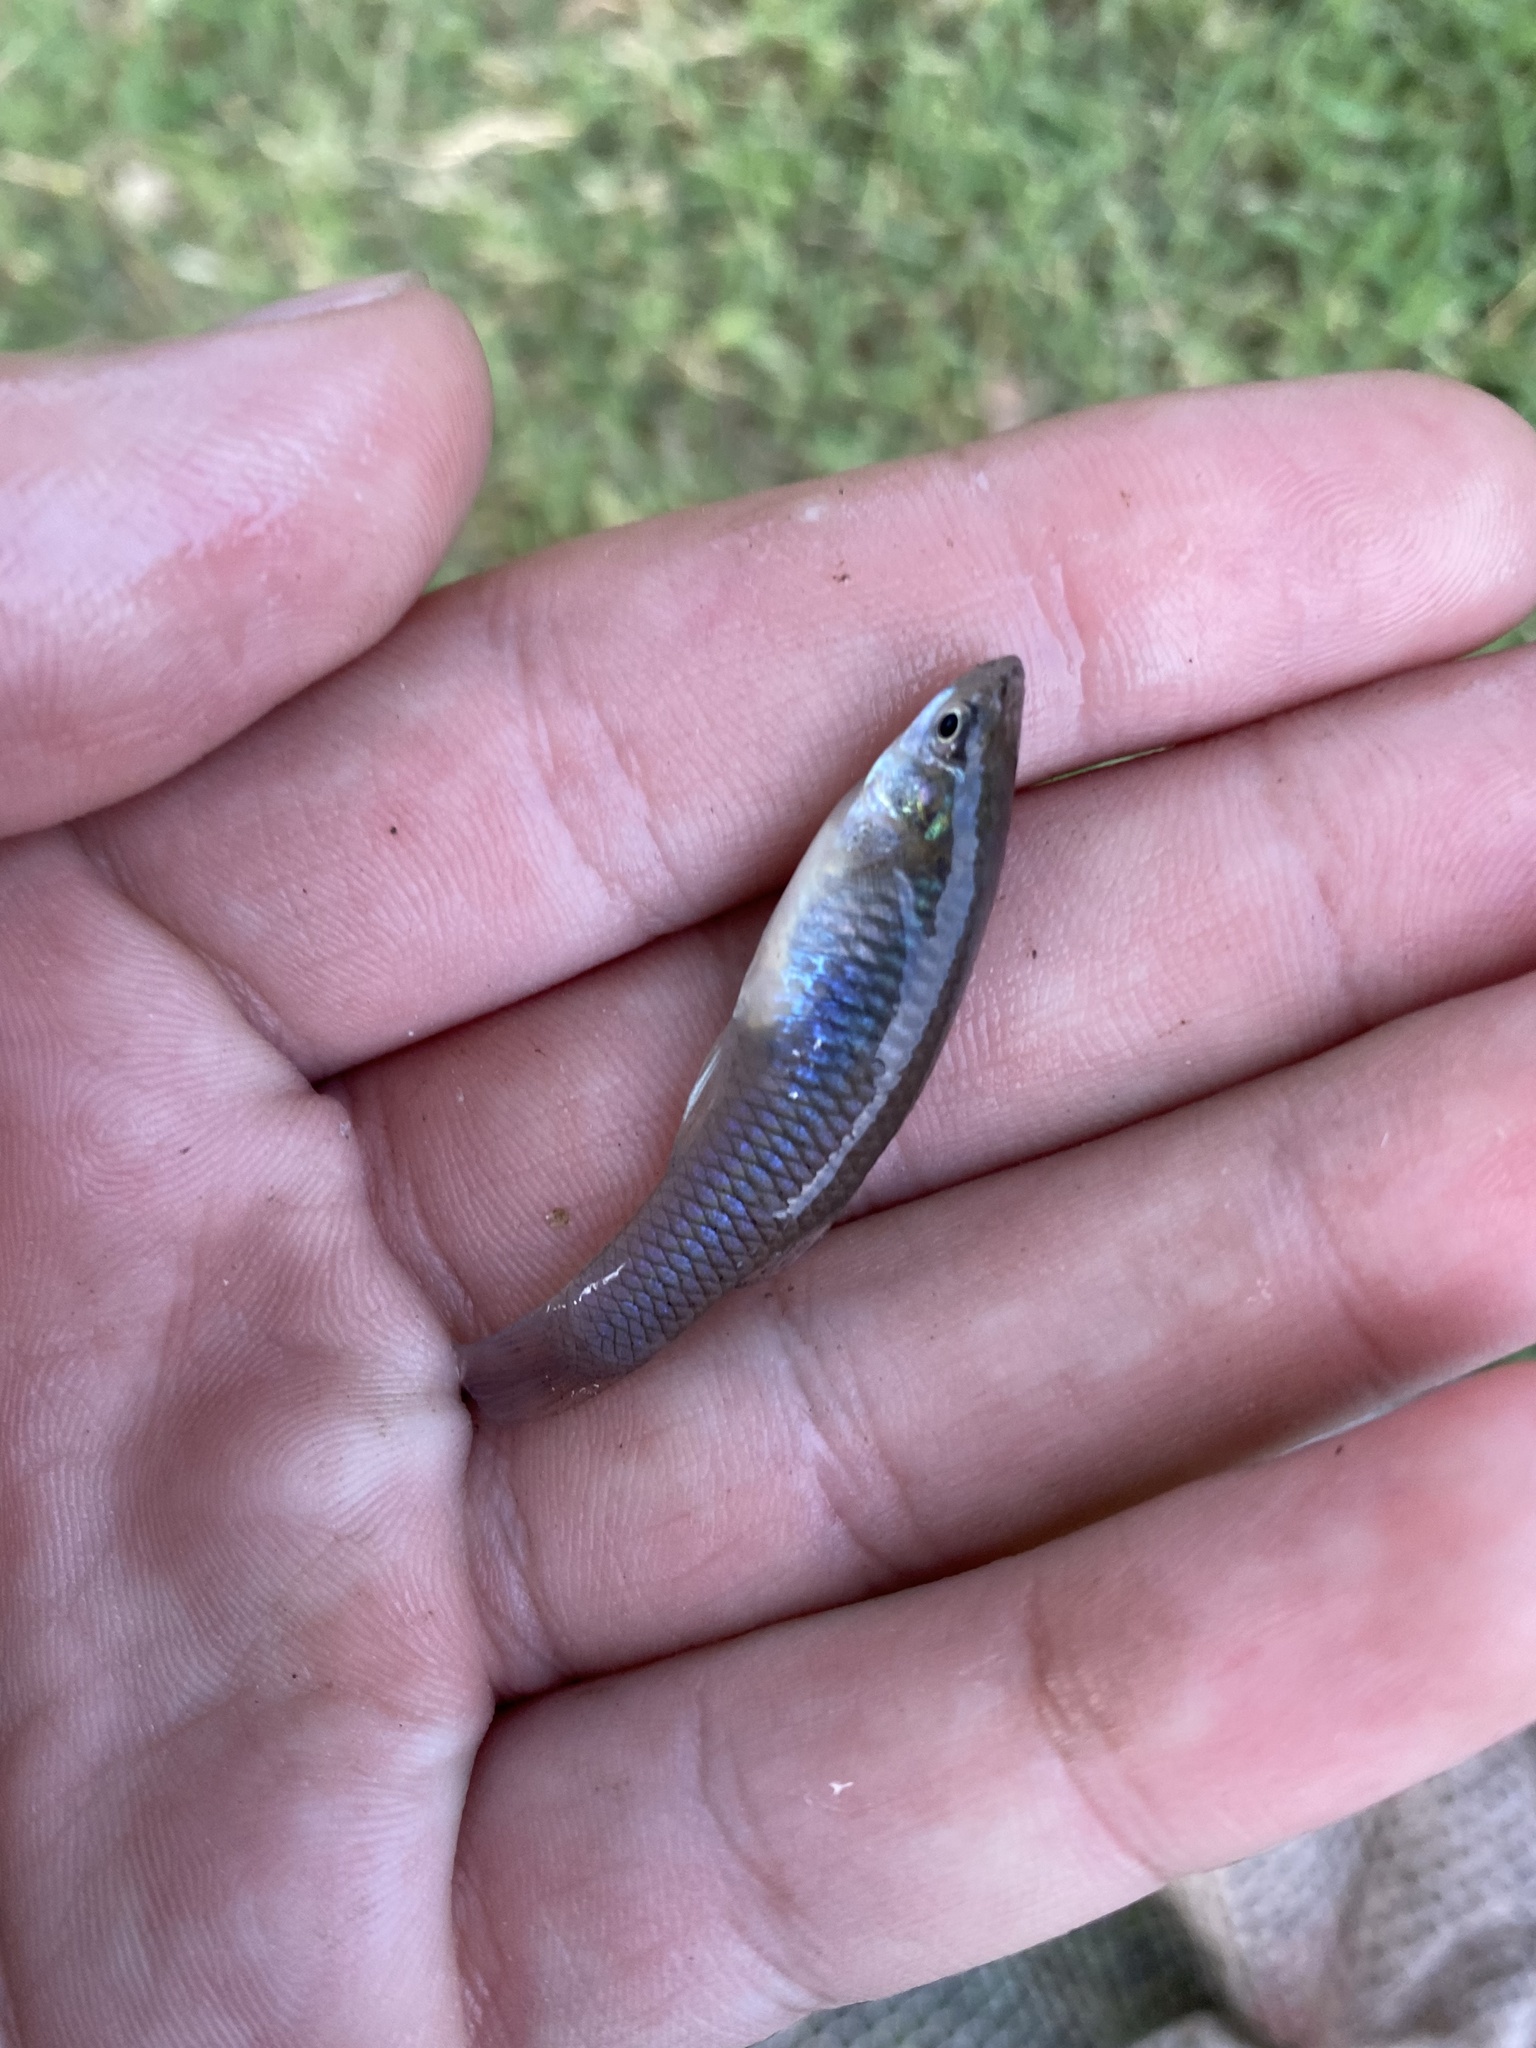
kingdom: Animalia
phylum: Chordata
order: Cyprinodontiformes
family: Poeciliidae
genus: Gambusia
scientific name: Gambusia affinis
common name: Mosquitofish
